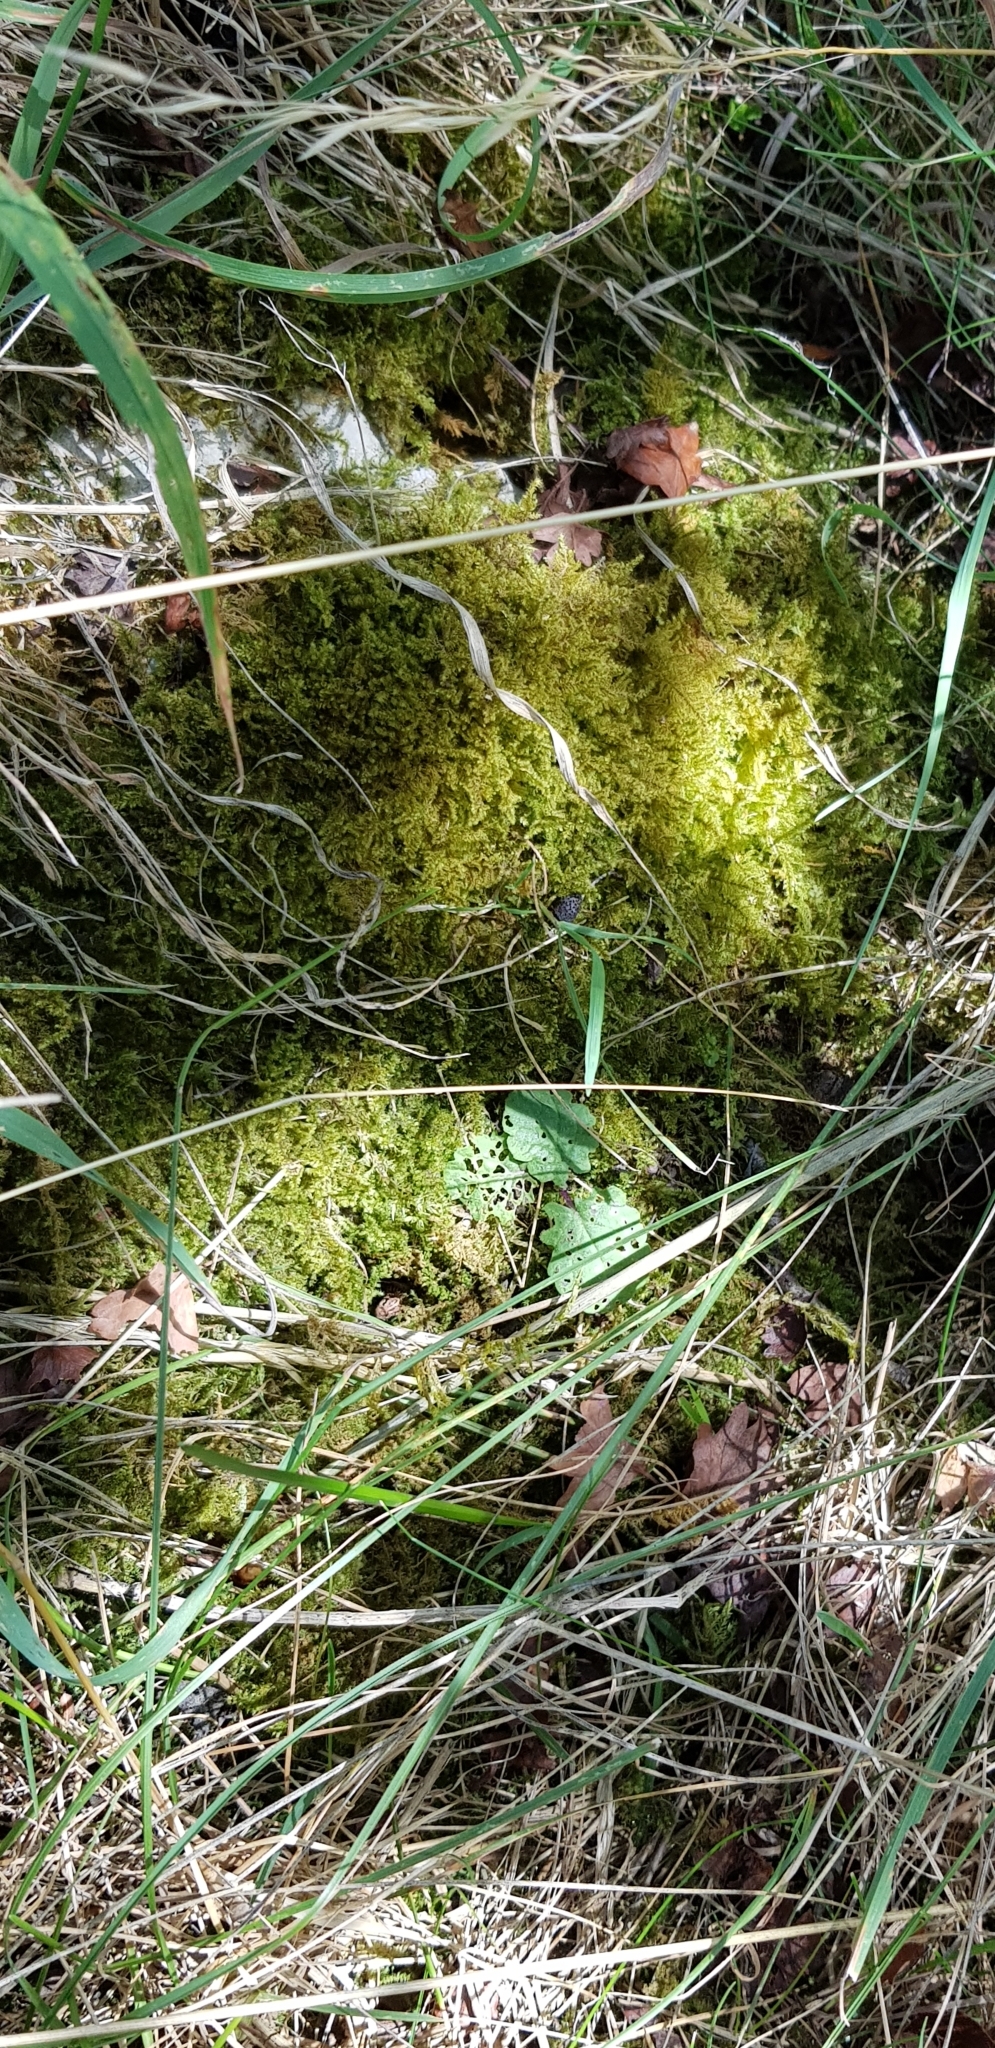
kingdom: Plantae
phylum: Bryophyta
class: Bryopsida
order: Hypnales
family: Myuriaceae
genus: Ctenidium
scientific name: Ctenidium molluscum
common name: Chalk comb-moss
